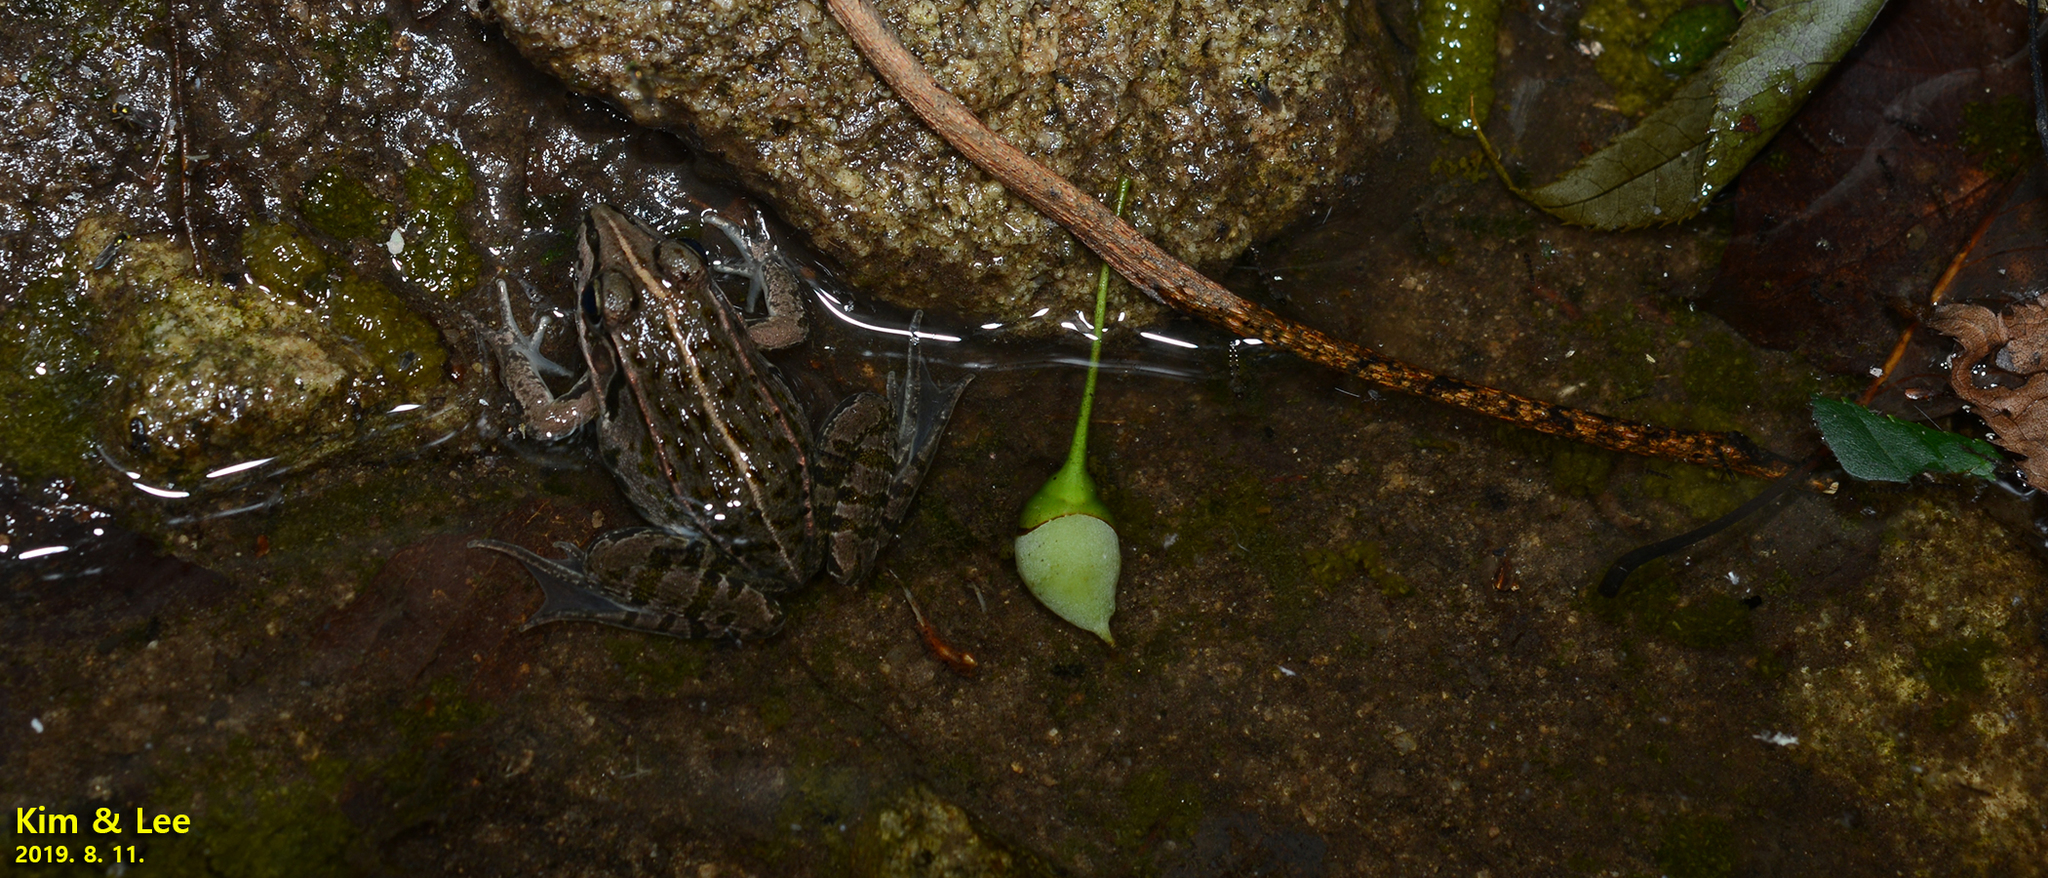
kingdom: Animalia
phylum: Chordata
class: Amphibia
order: Anura
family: Ranidae
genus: Pelophylax
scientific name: Pelophylax nigromaculatus
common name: Black-spotted pond frog
